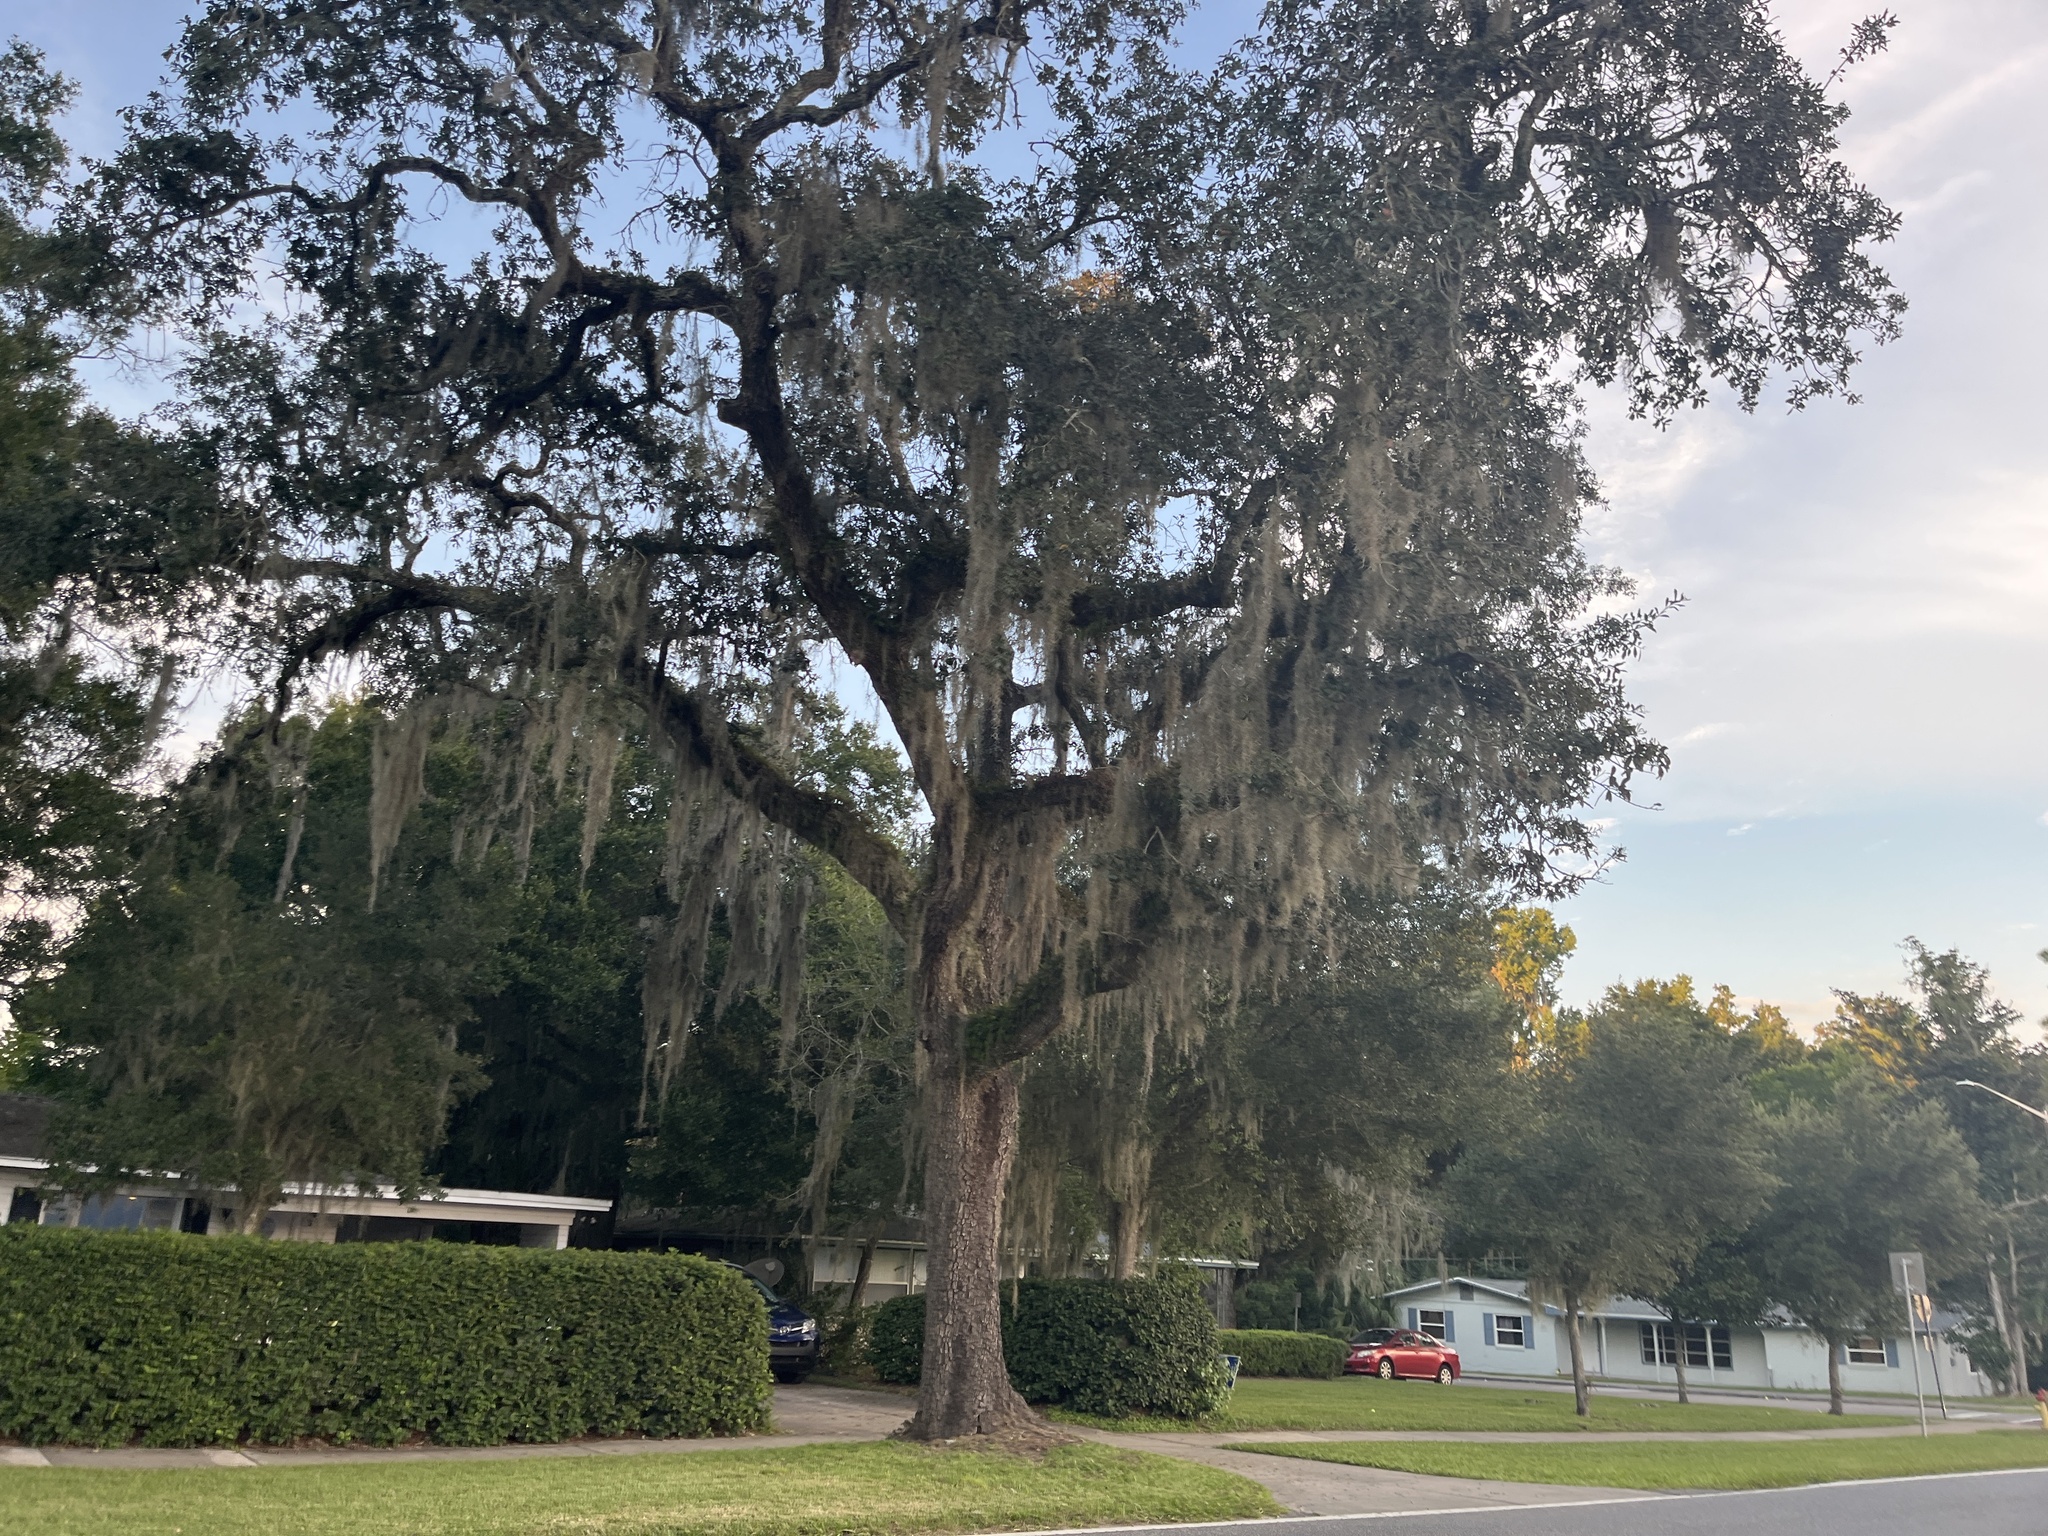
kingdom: Plantae
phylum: Tracheophyta
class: Liliopsida
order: Poales
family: Bromeliaceae
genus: Tillandsia
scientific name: Tillandsia usneoides
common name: Spanish moss
